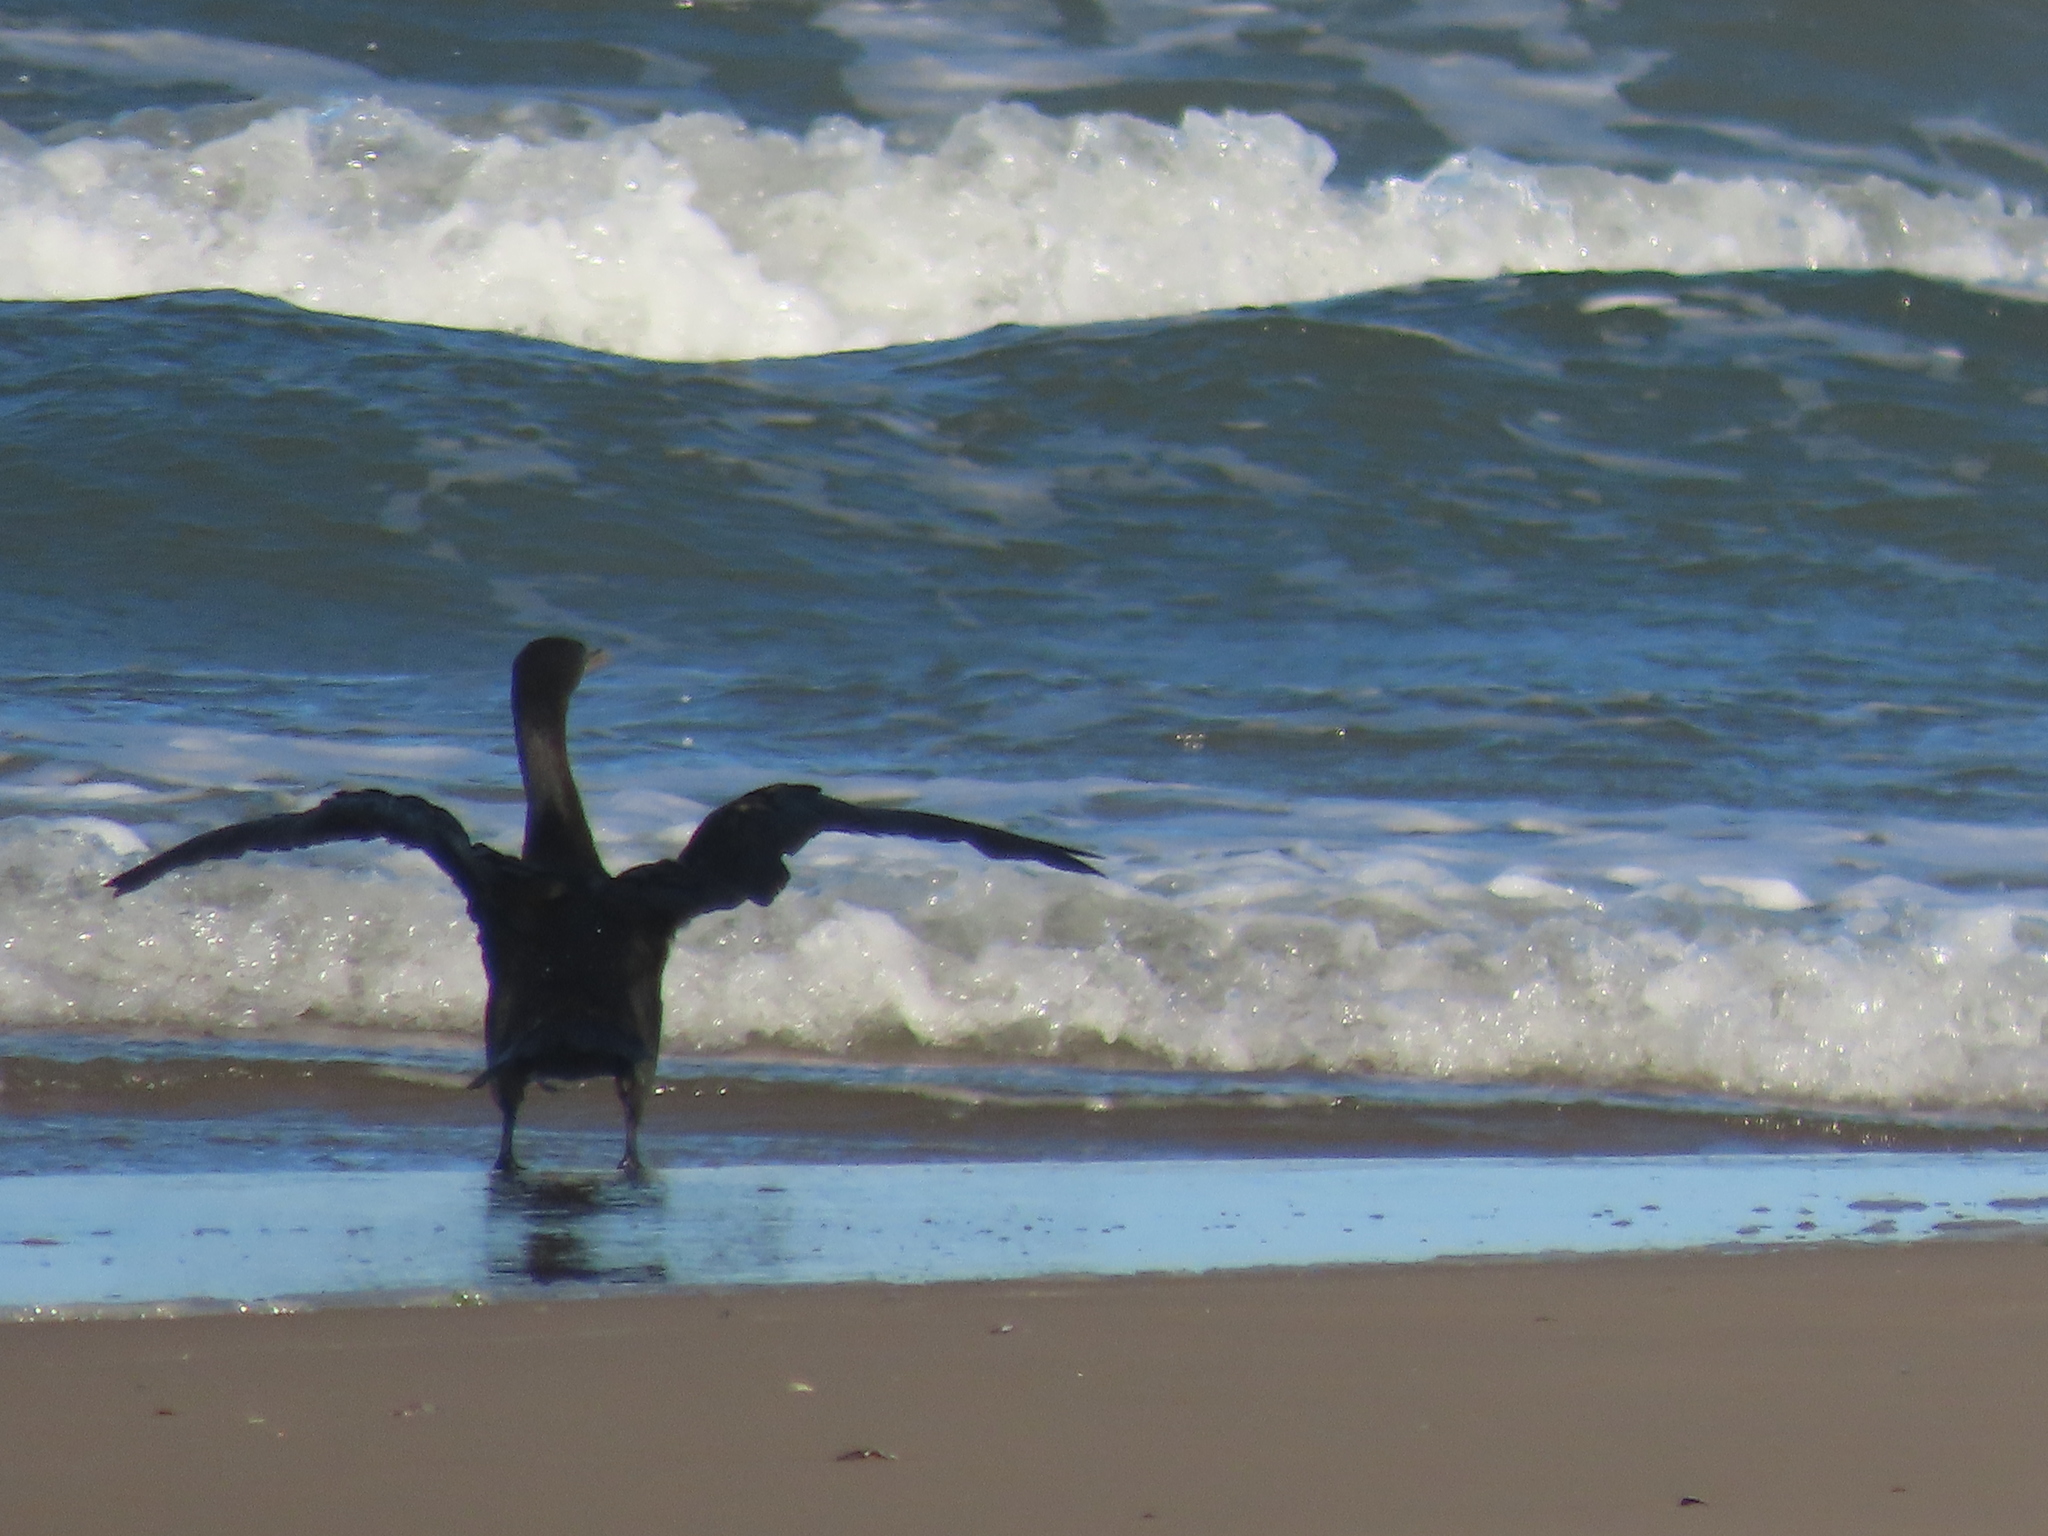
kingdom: Animalia
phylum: Chordata
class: Aves
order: Suliformes
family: Phalacrocoracidae
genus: Phalacrocorax
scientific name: Phalacrocorax brasilianus
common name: Neotropic cormorant
